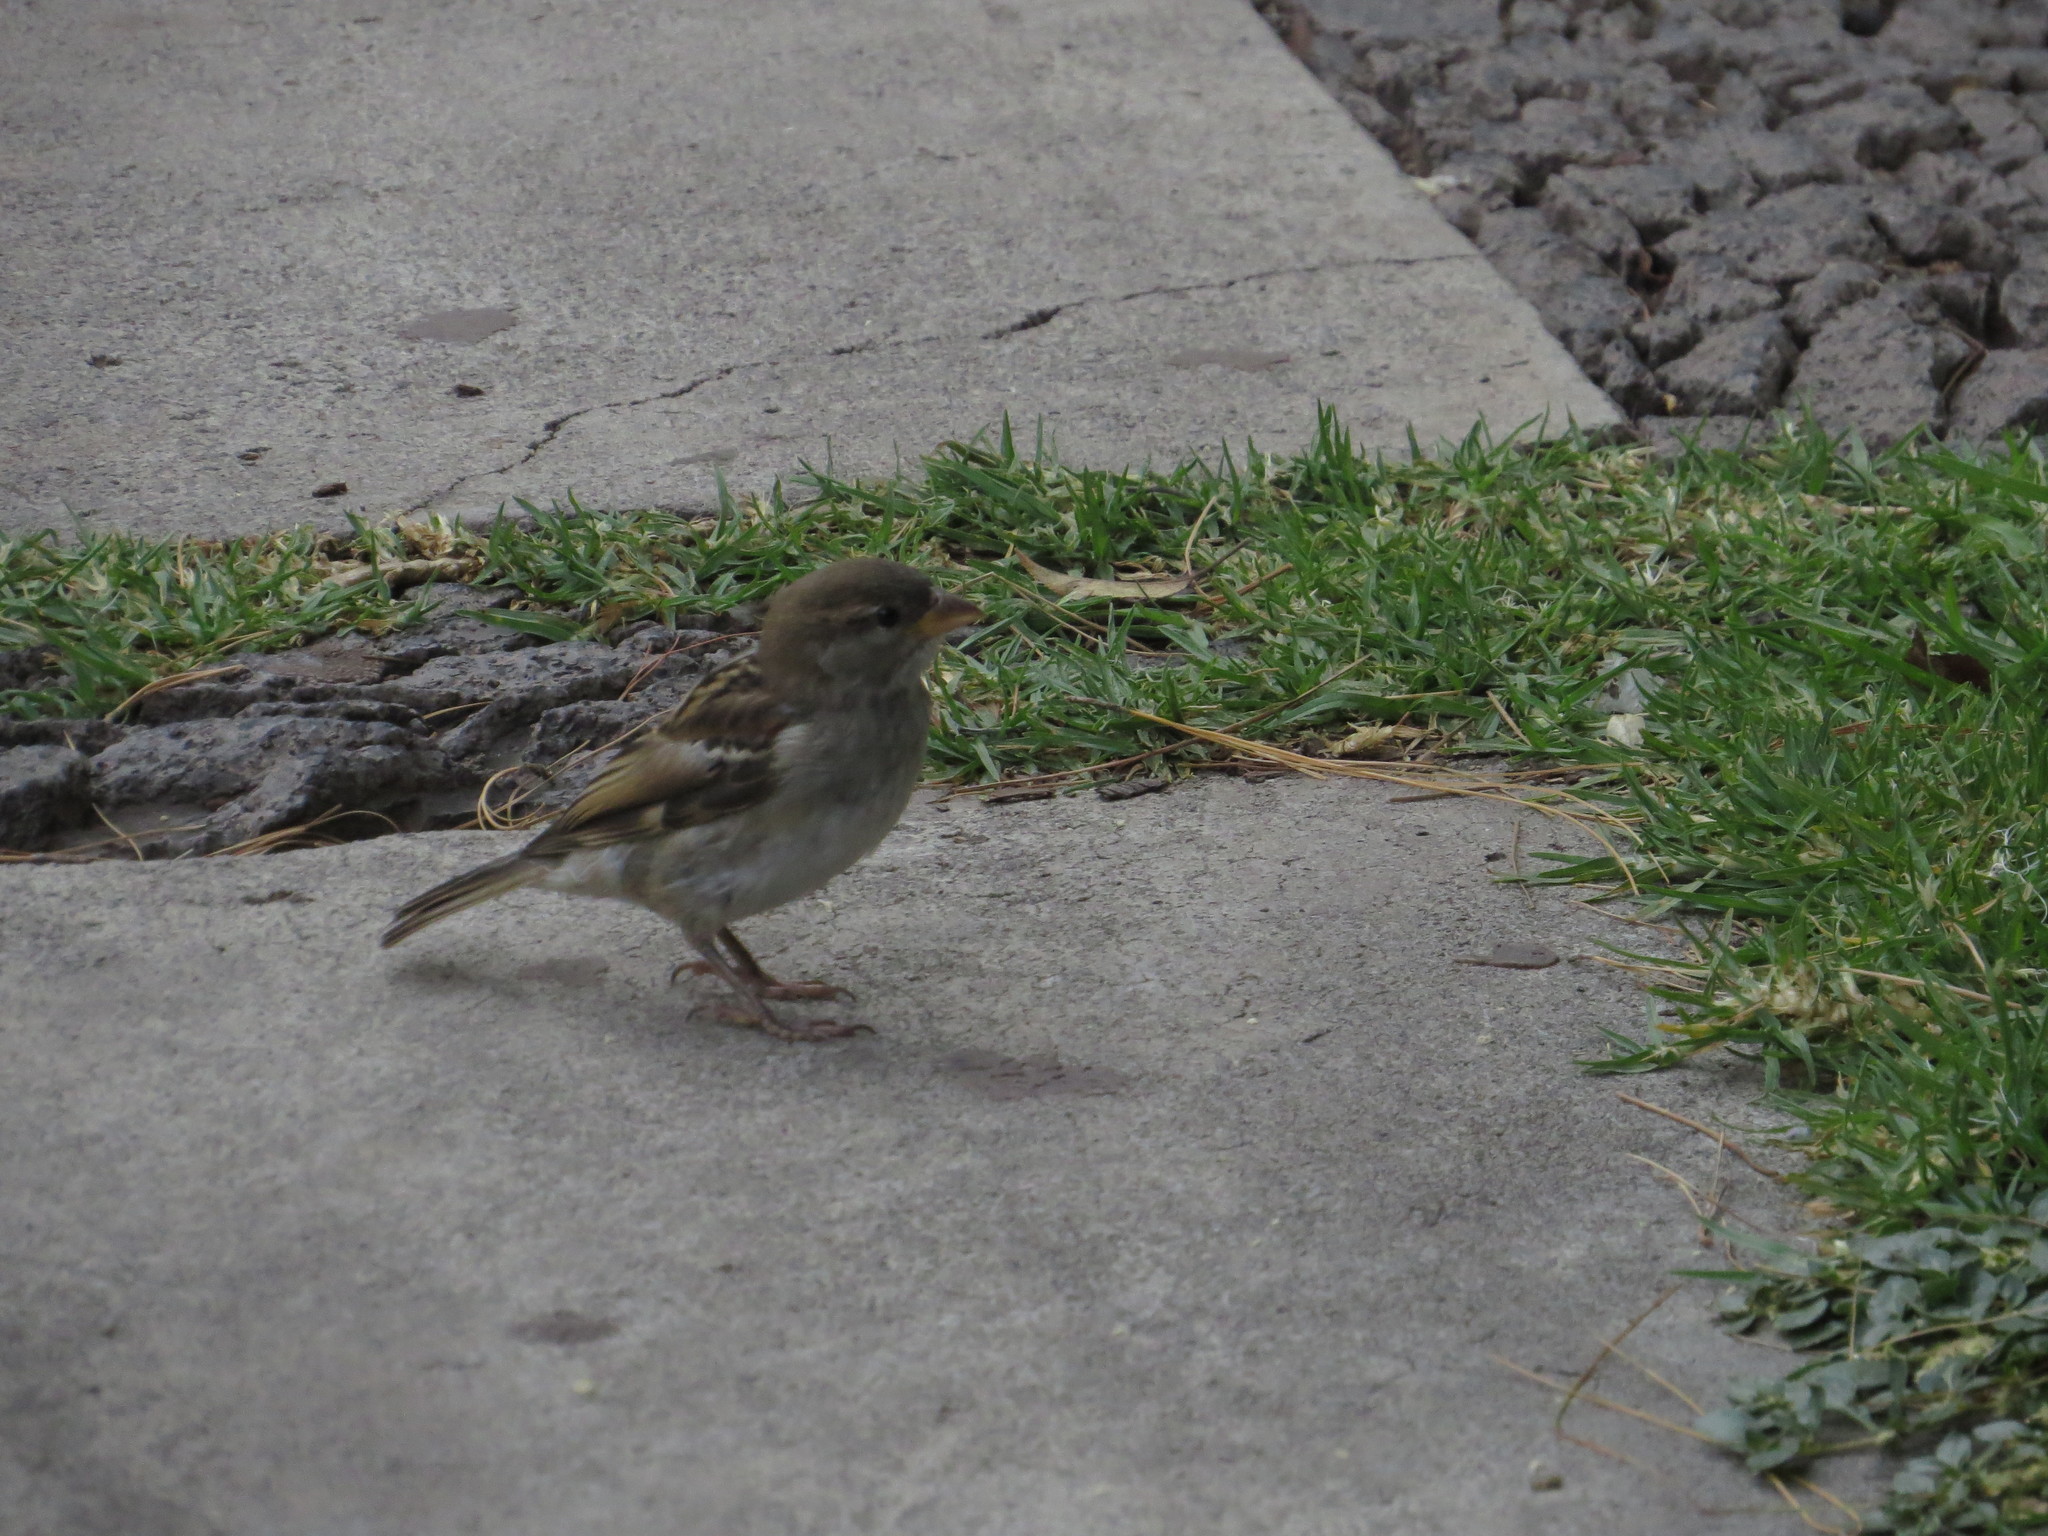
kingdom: Animalia
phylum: Chordata
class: Aves
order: Passeriformes
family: Passeridae
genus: Passer
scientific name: Passer domesticus
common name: House sparrow
